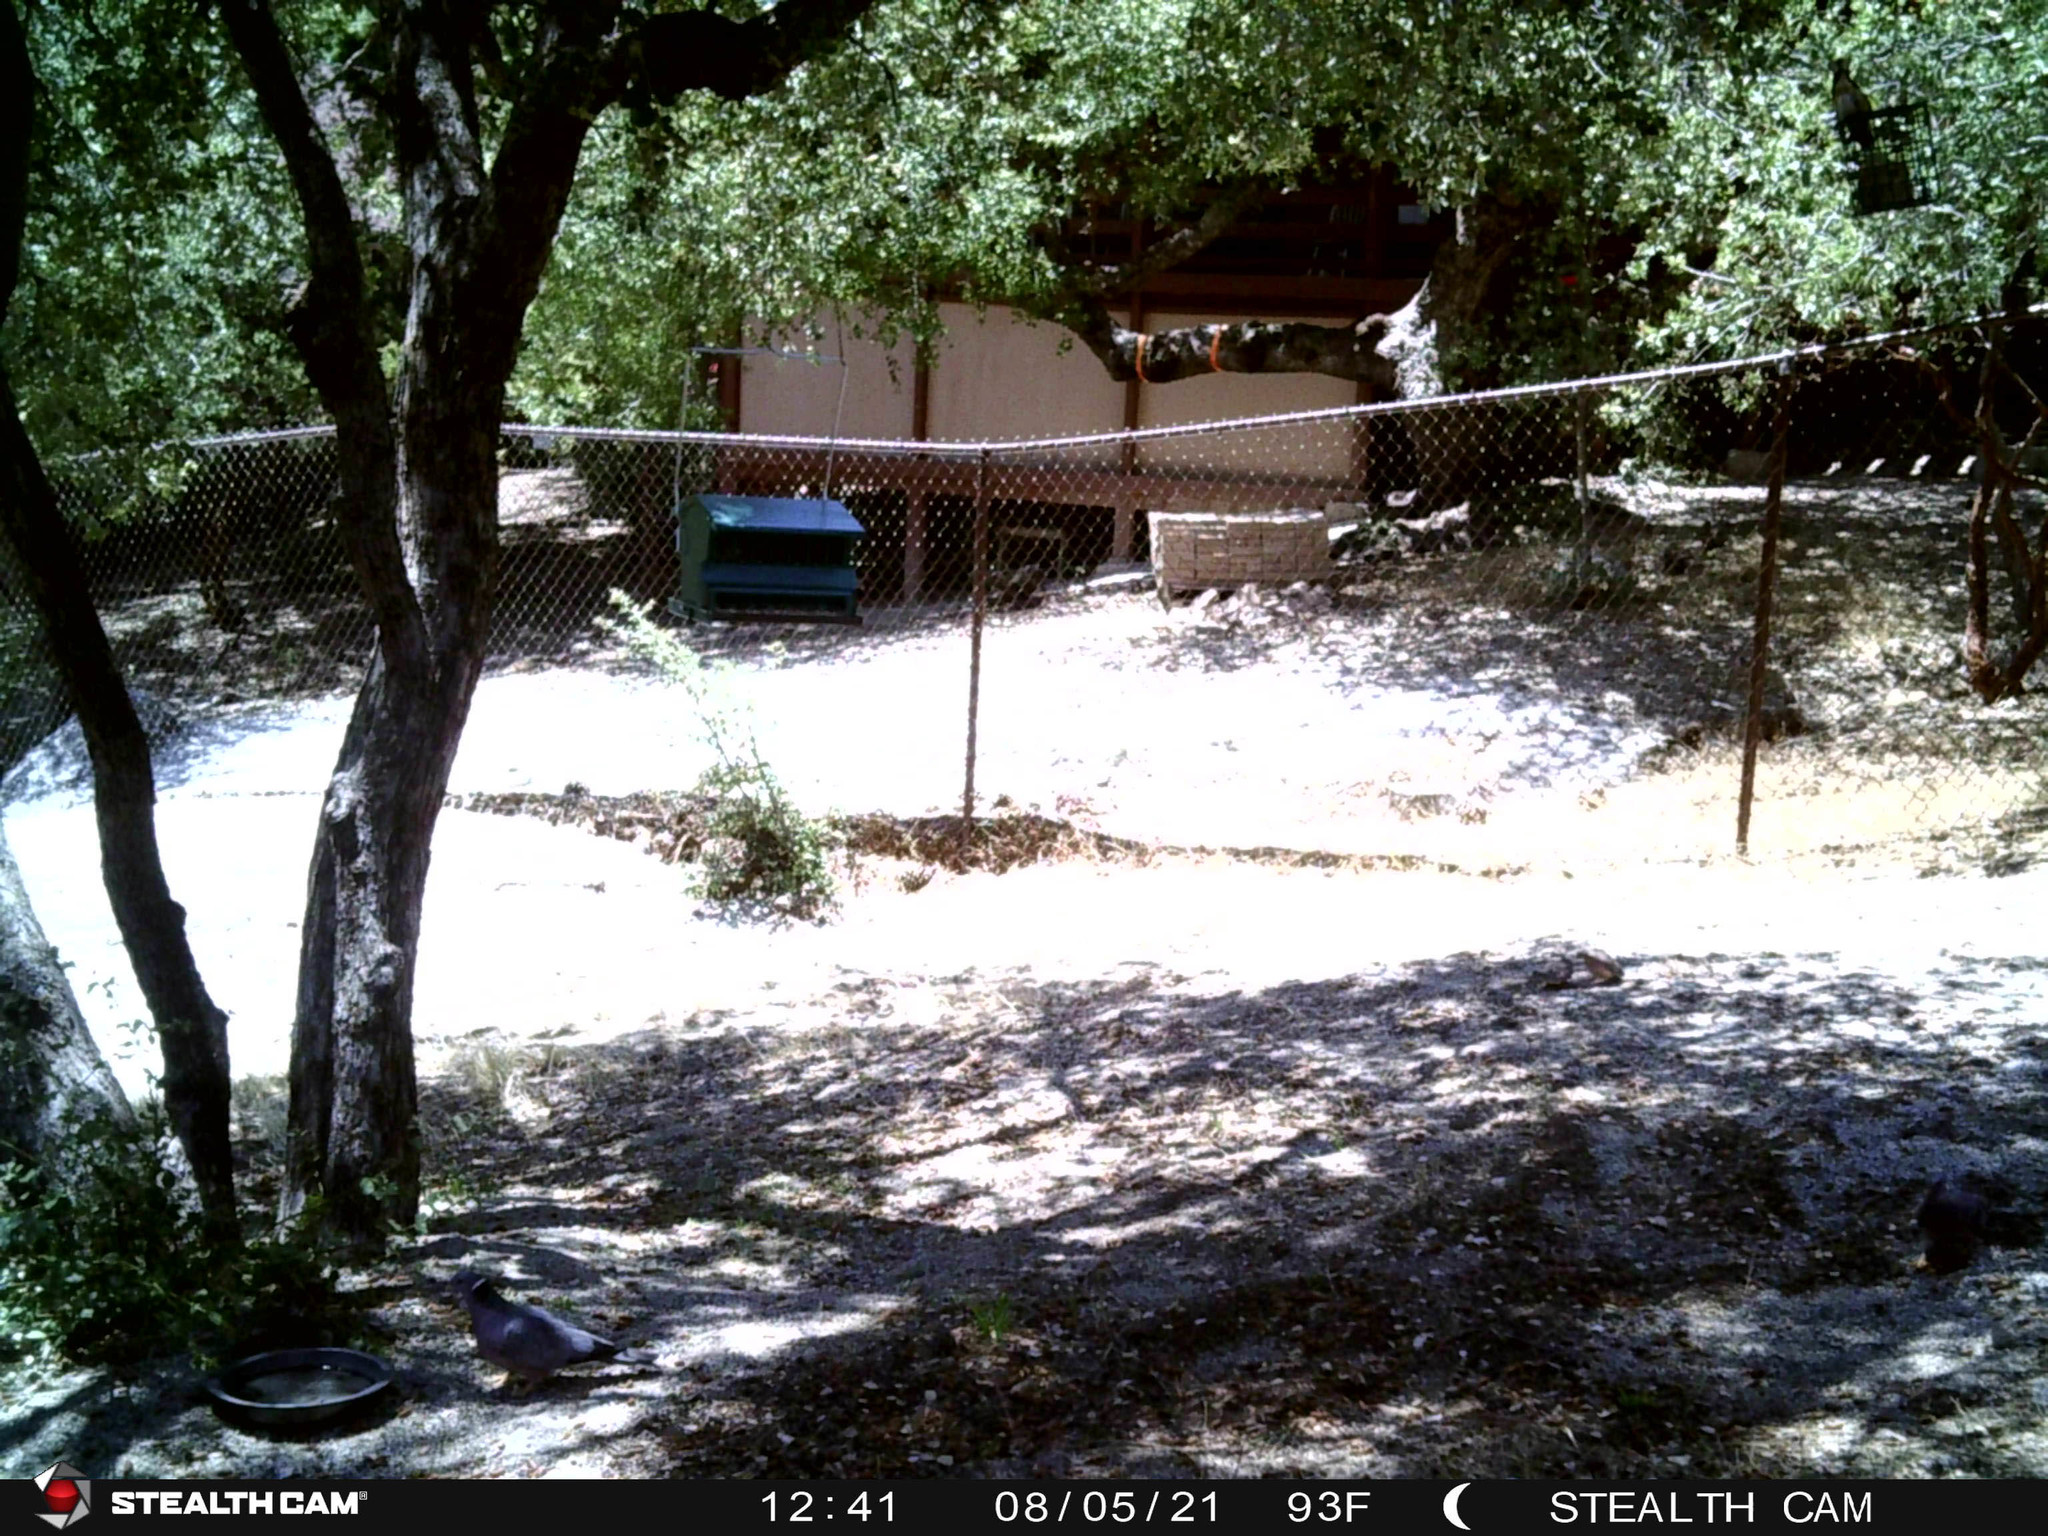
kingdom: Animalia
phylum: Chordata
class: Aves
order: Columbiformes
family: Columbidae
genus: Patagioenas
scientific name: Patagioenas fasciata
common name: Band-tailed pigeon
